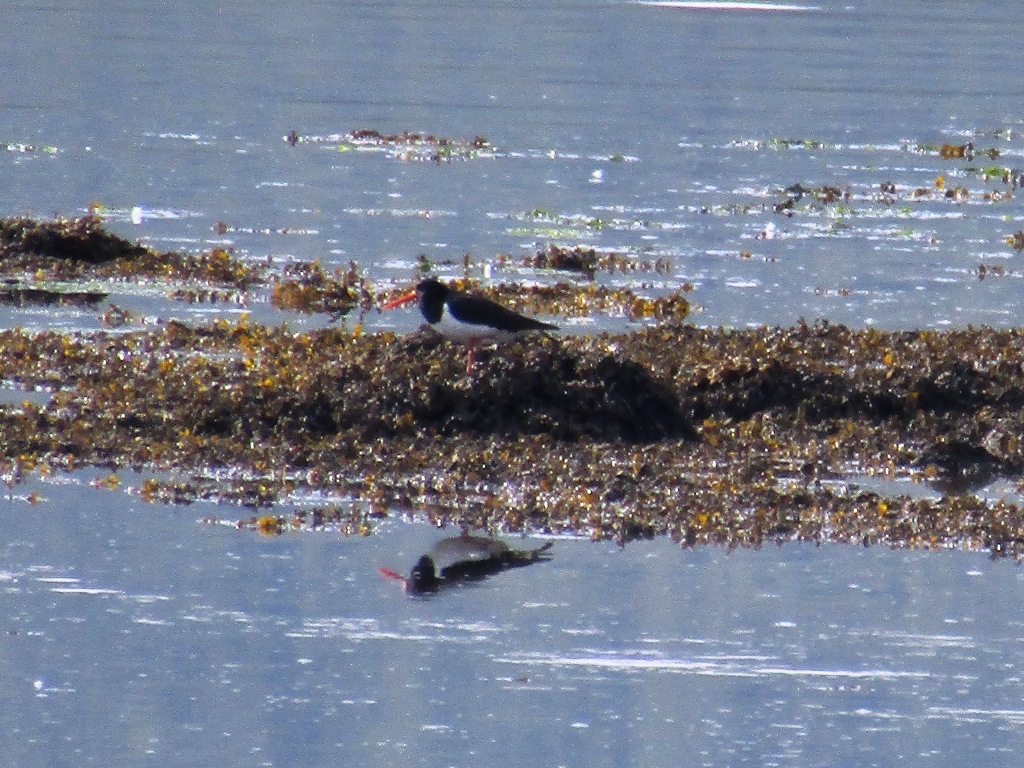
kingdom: Animalia
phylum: Chordata
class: Aves
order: Charadriiformes
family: Haematopodidae
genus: Haematopus
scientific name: Haematopus ostralegus
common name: Eurasian oystercatcher
